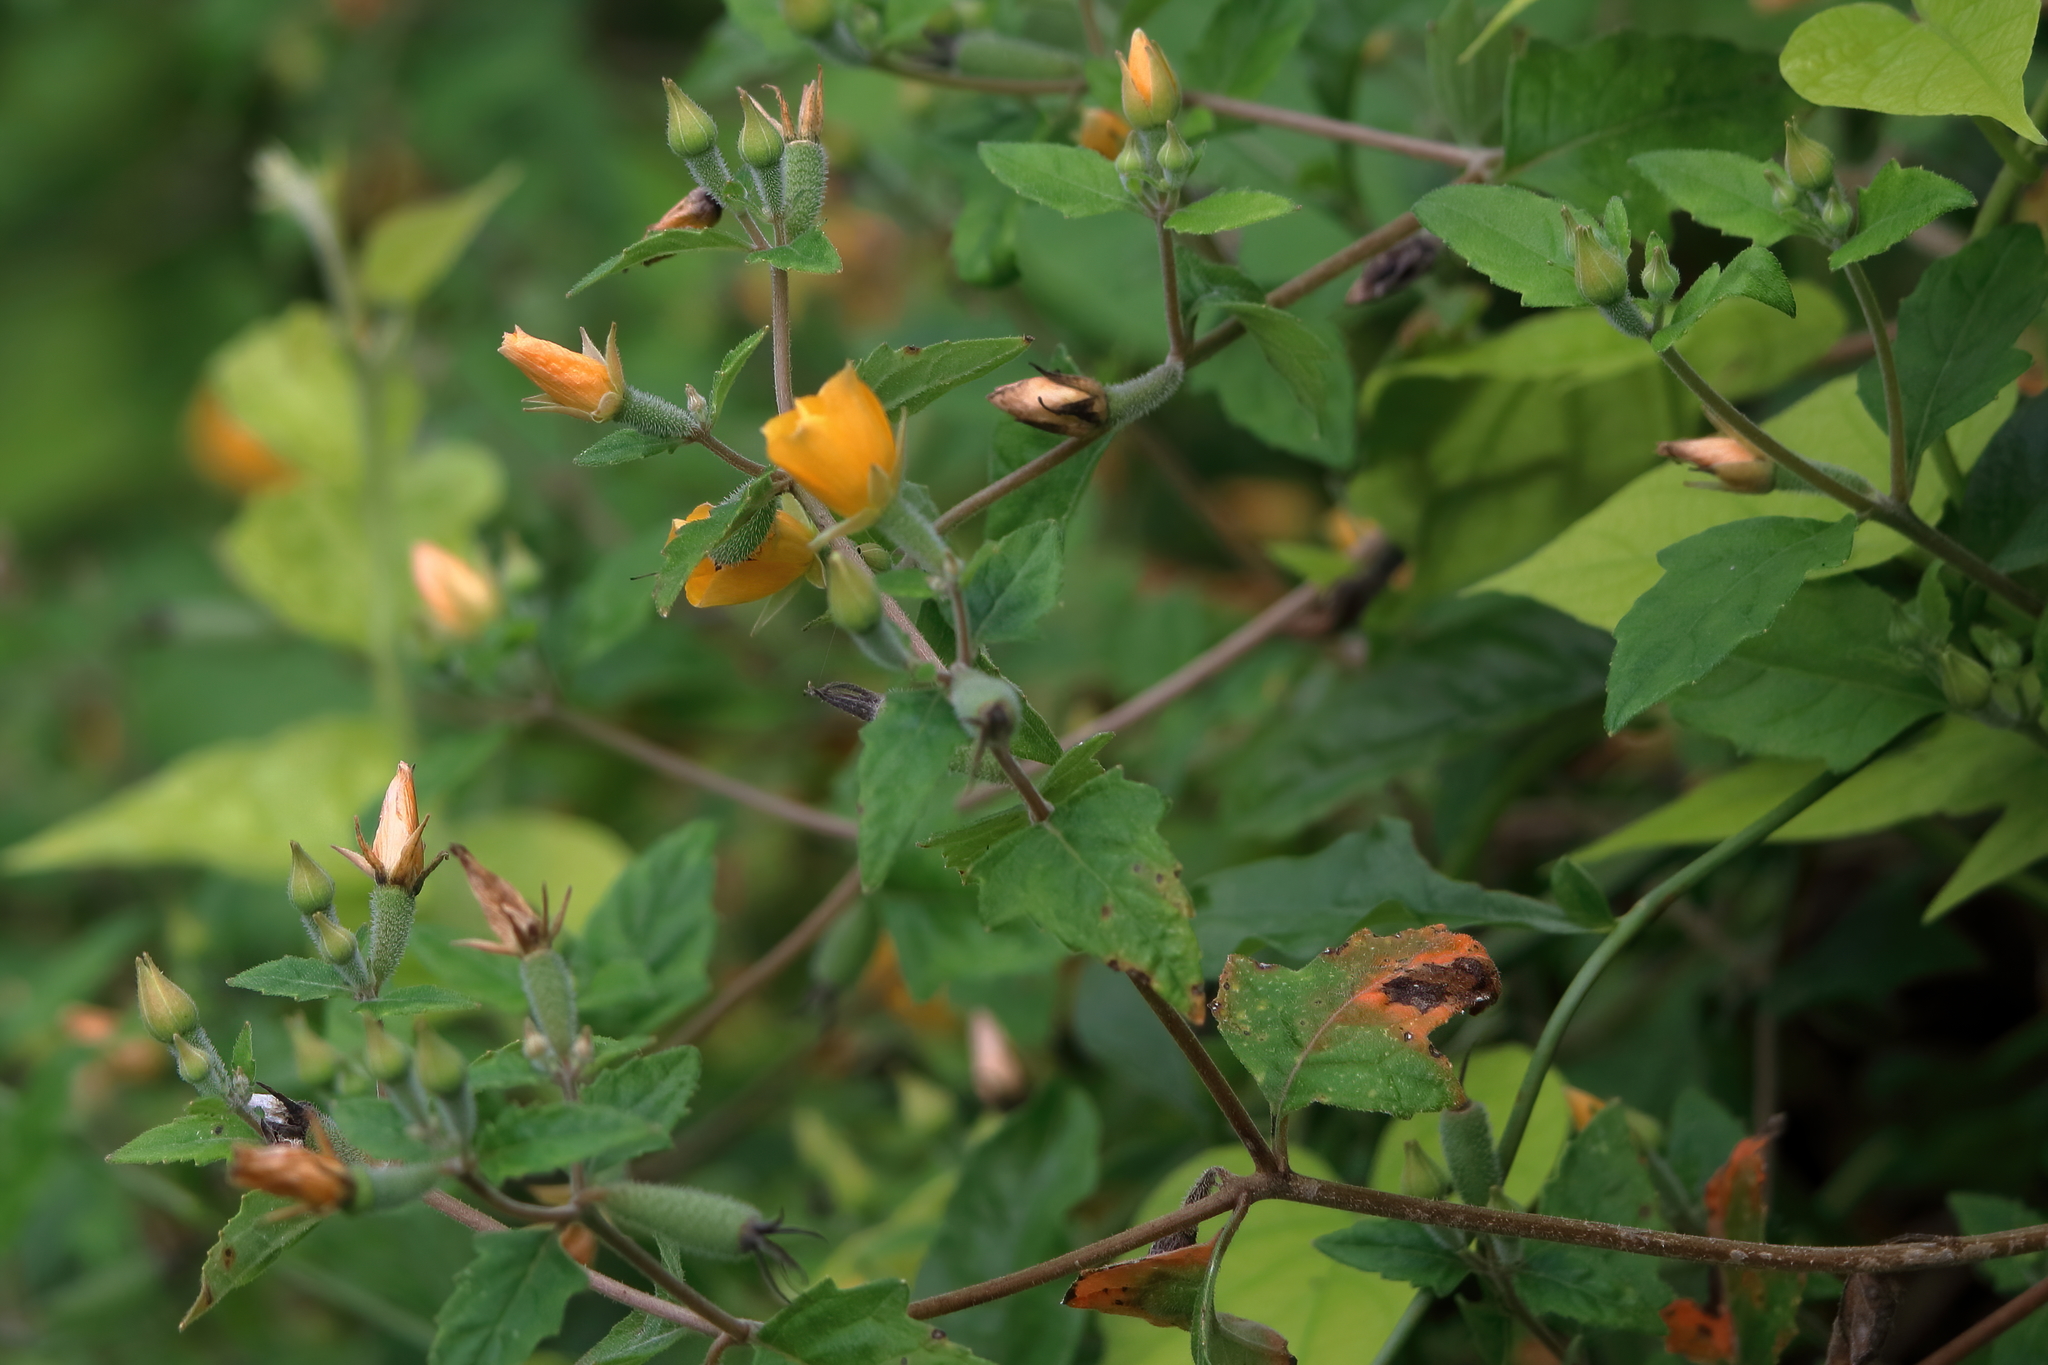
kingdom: Plantae
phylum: Tracheophyta
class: Magnoliopsida
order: Cornales
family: Loasaceae
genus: Mentzelia
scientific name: Mentzelia floridana
